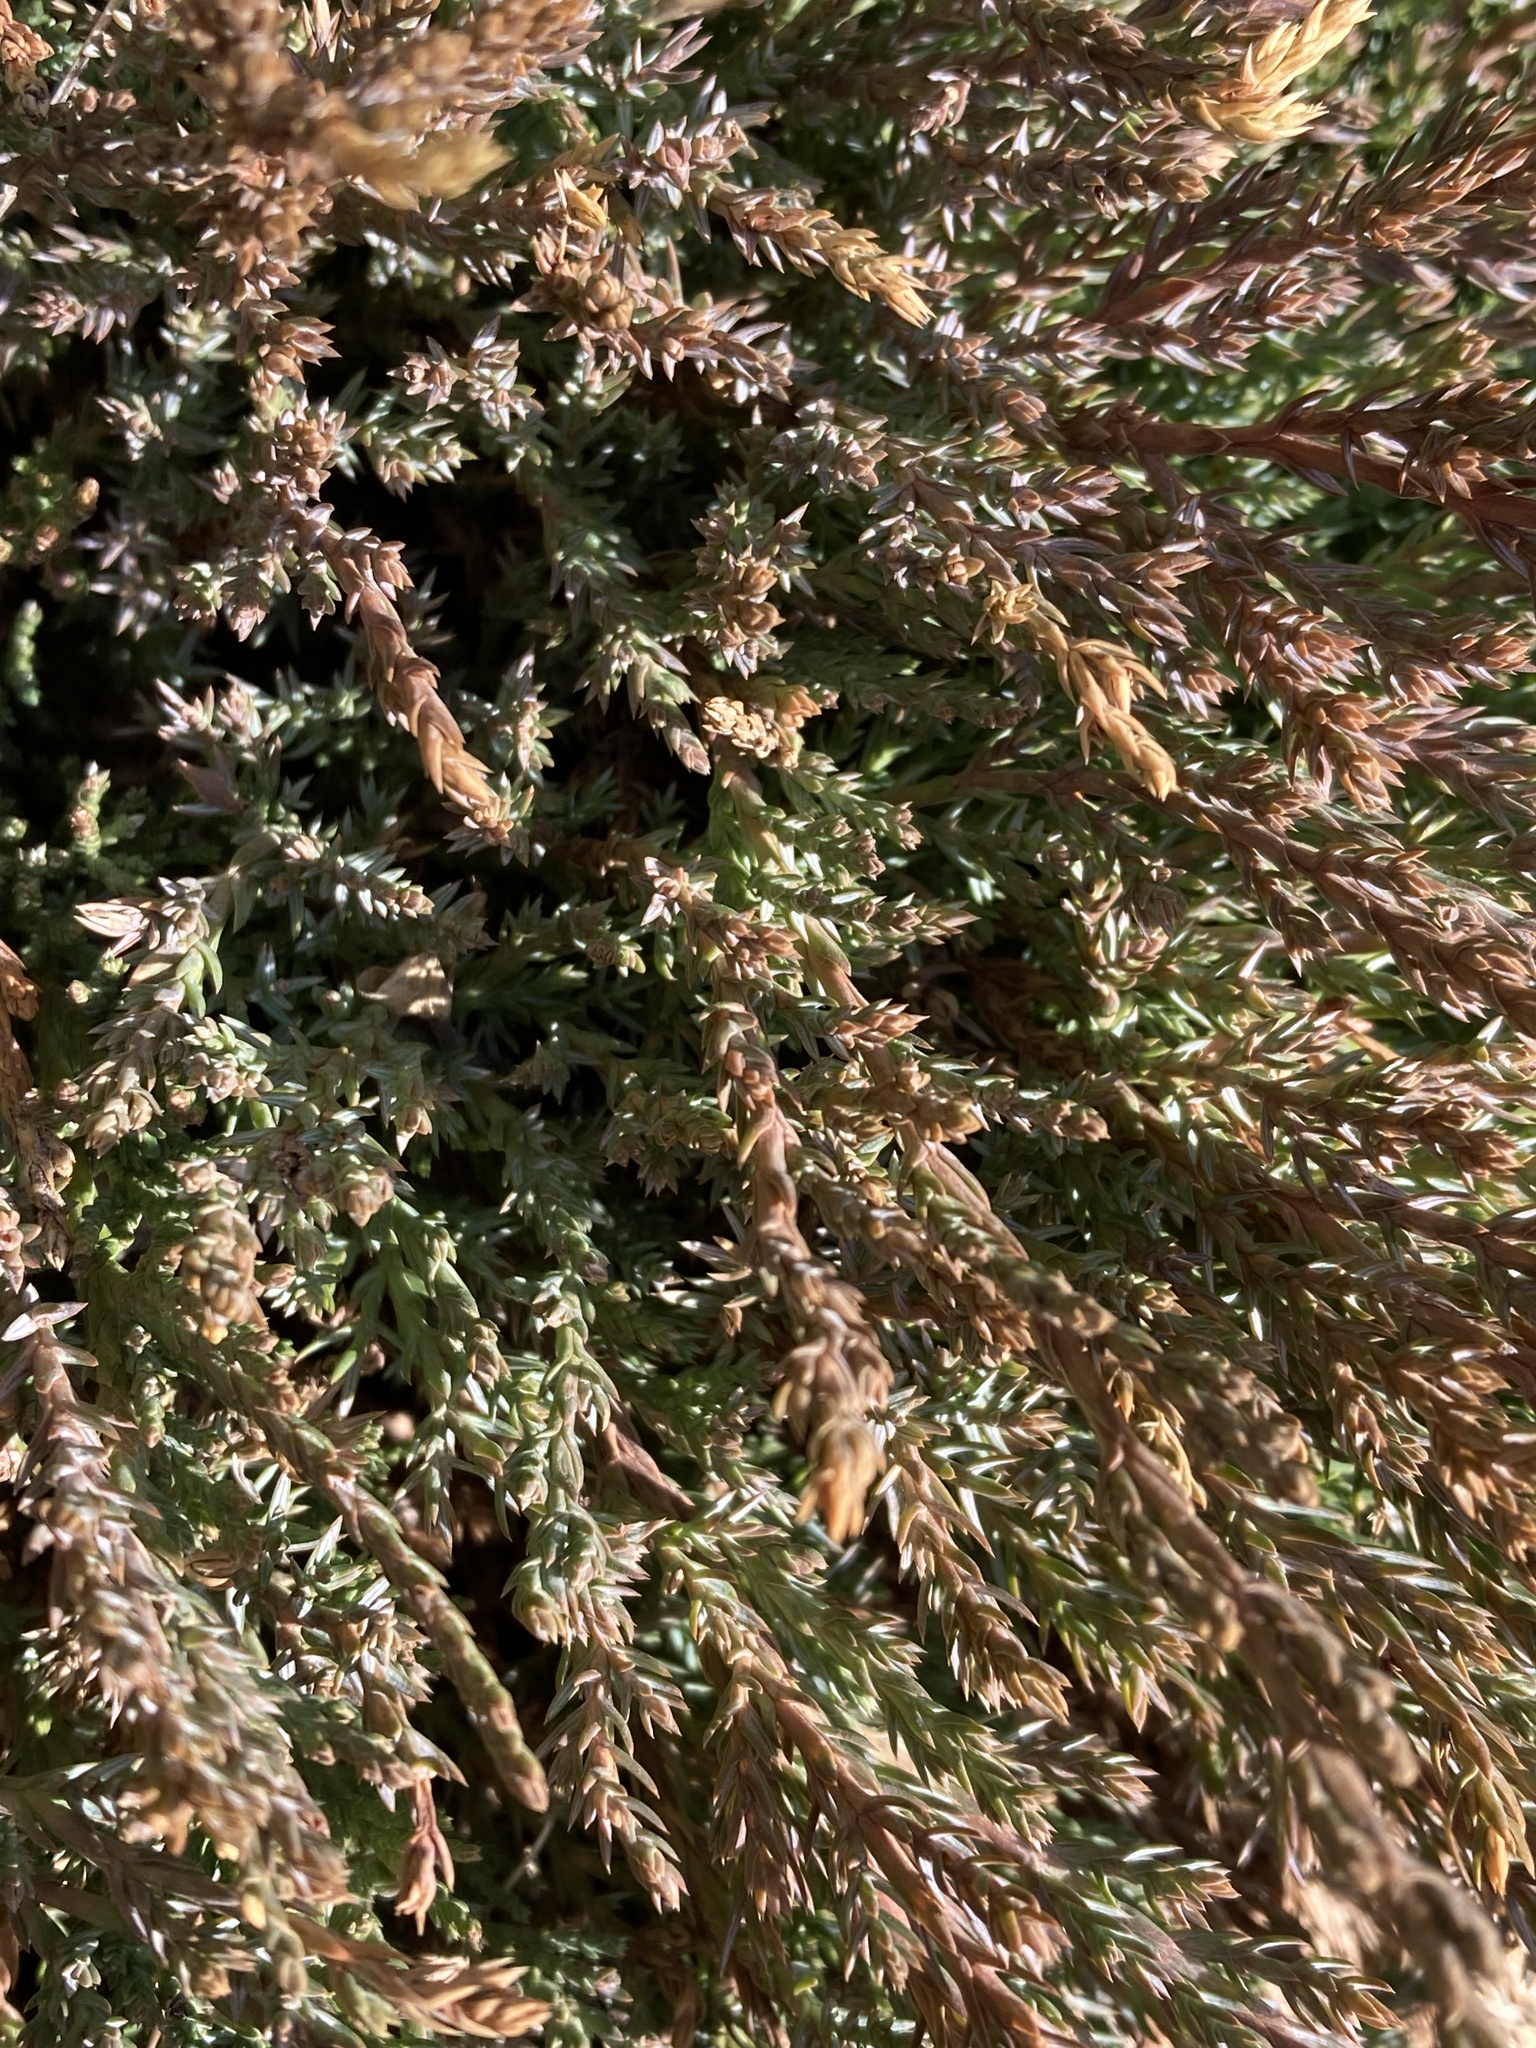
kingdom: Plantae
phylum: Tracheophyta
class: Pinopsida
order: Pinales
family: Cupressaceae
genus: Juniperus
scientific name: Juniperus horizontalis
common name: Creeping juniper
